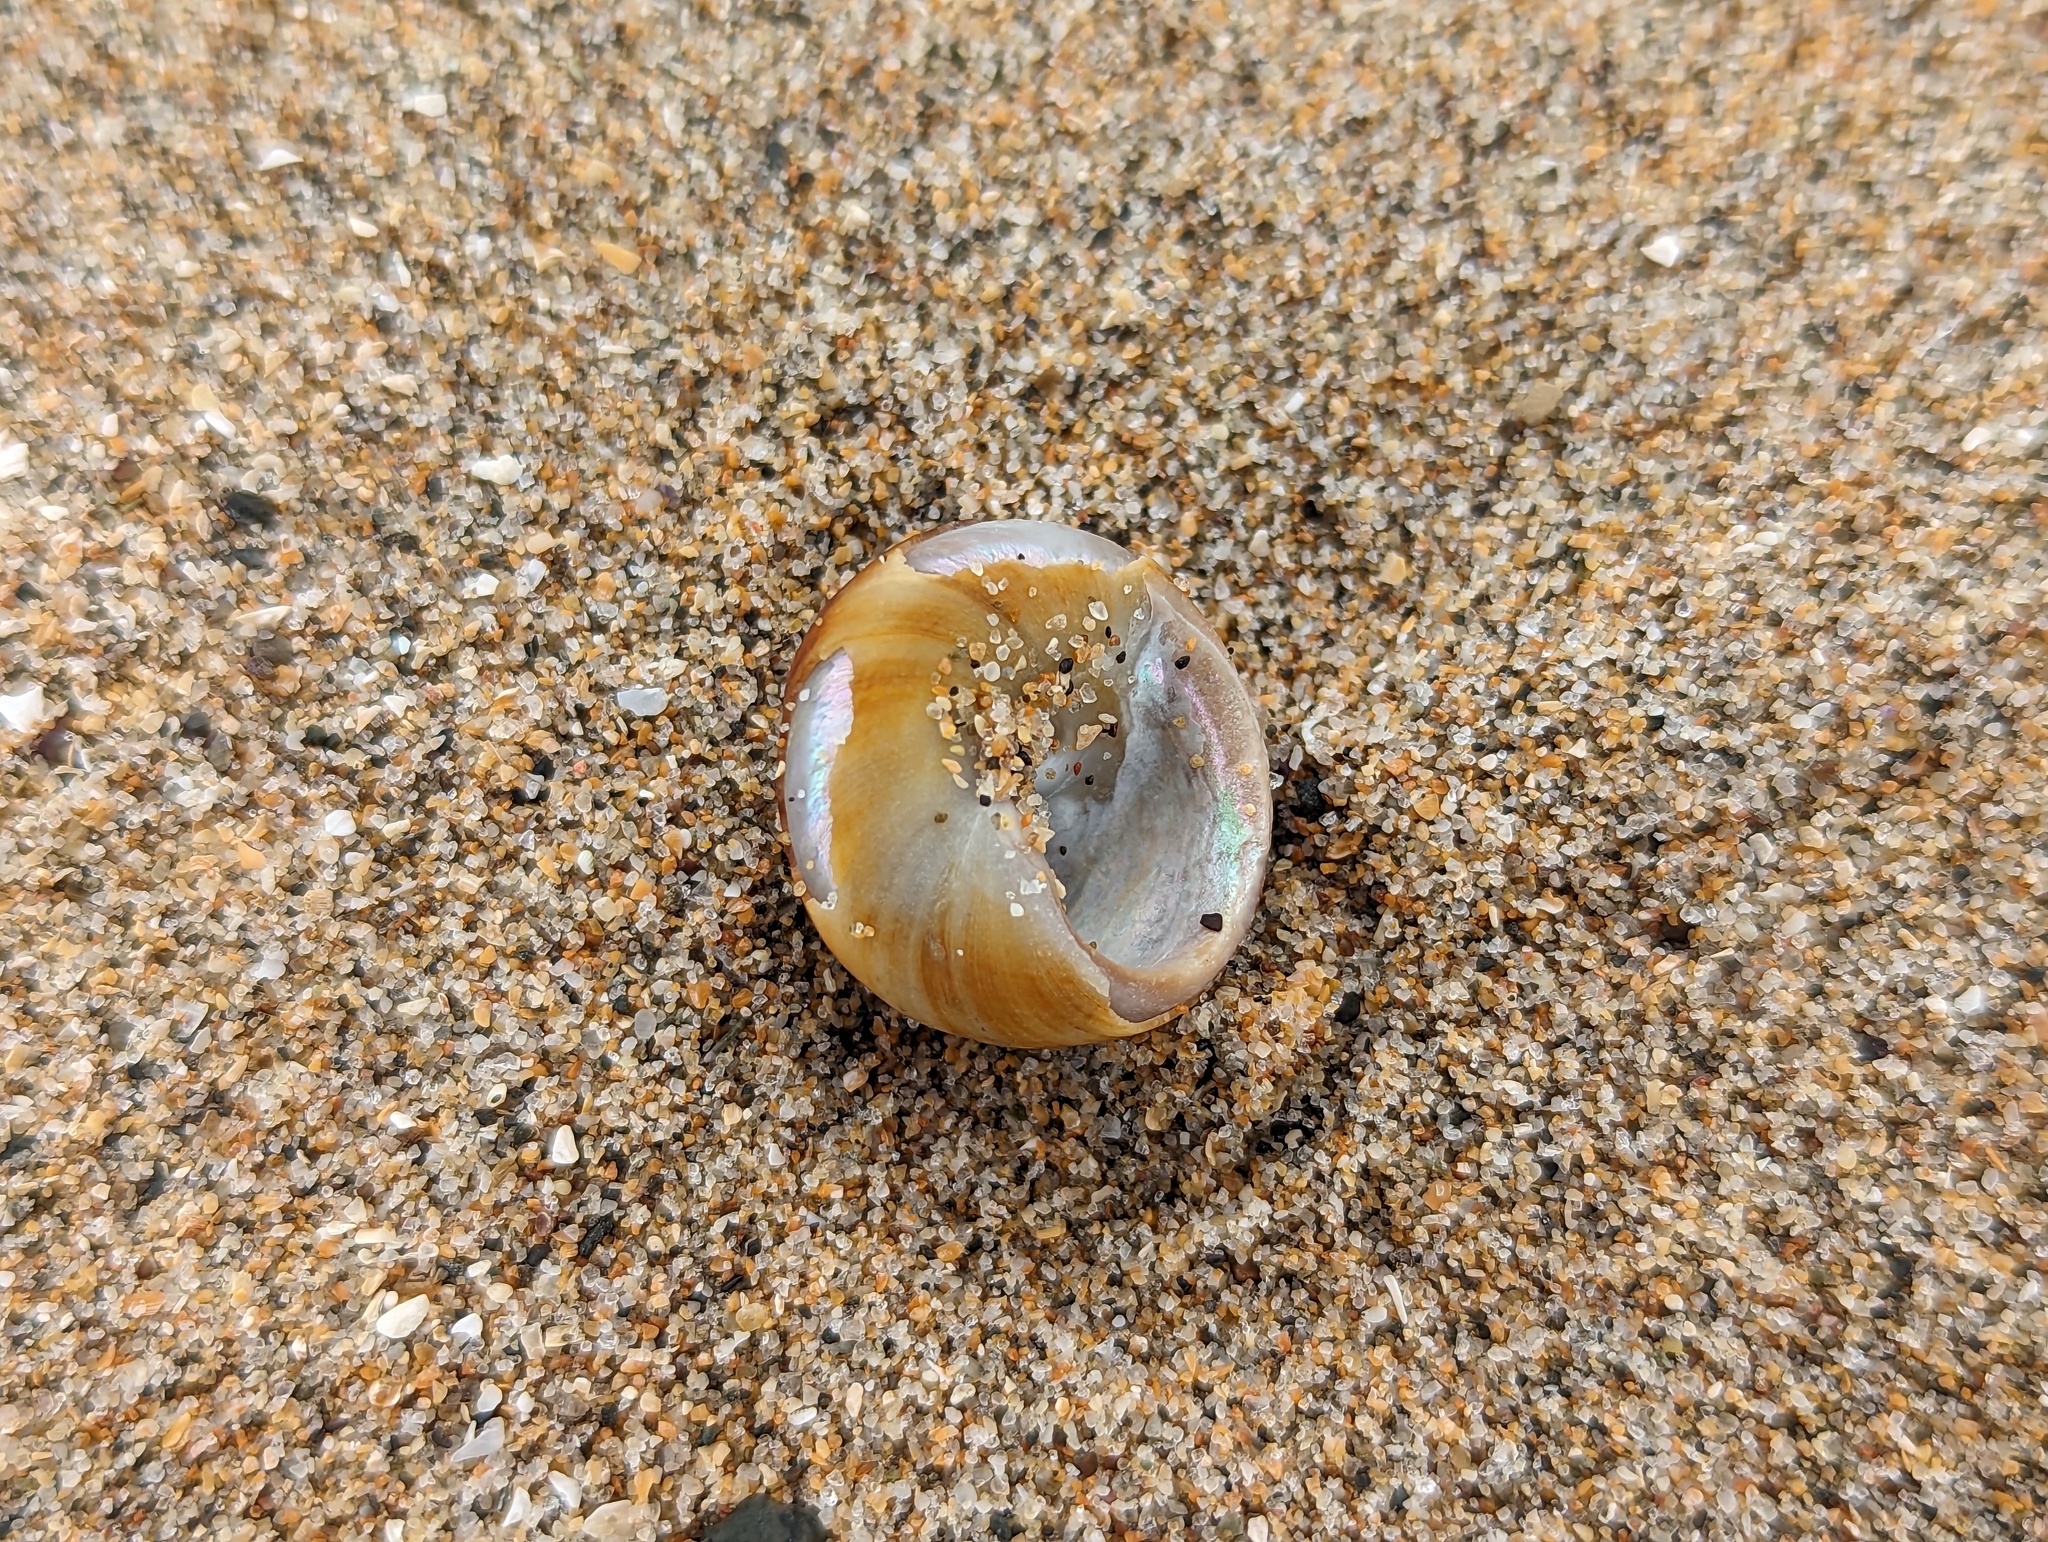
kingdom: Animalia
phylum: Mollusca
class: Gastropoda
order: Trochida
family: Tegulidae
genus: Tegula
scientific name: Tegula brunnea
